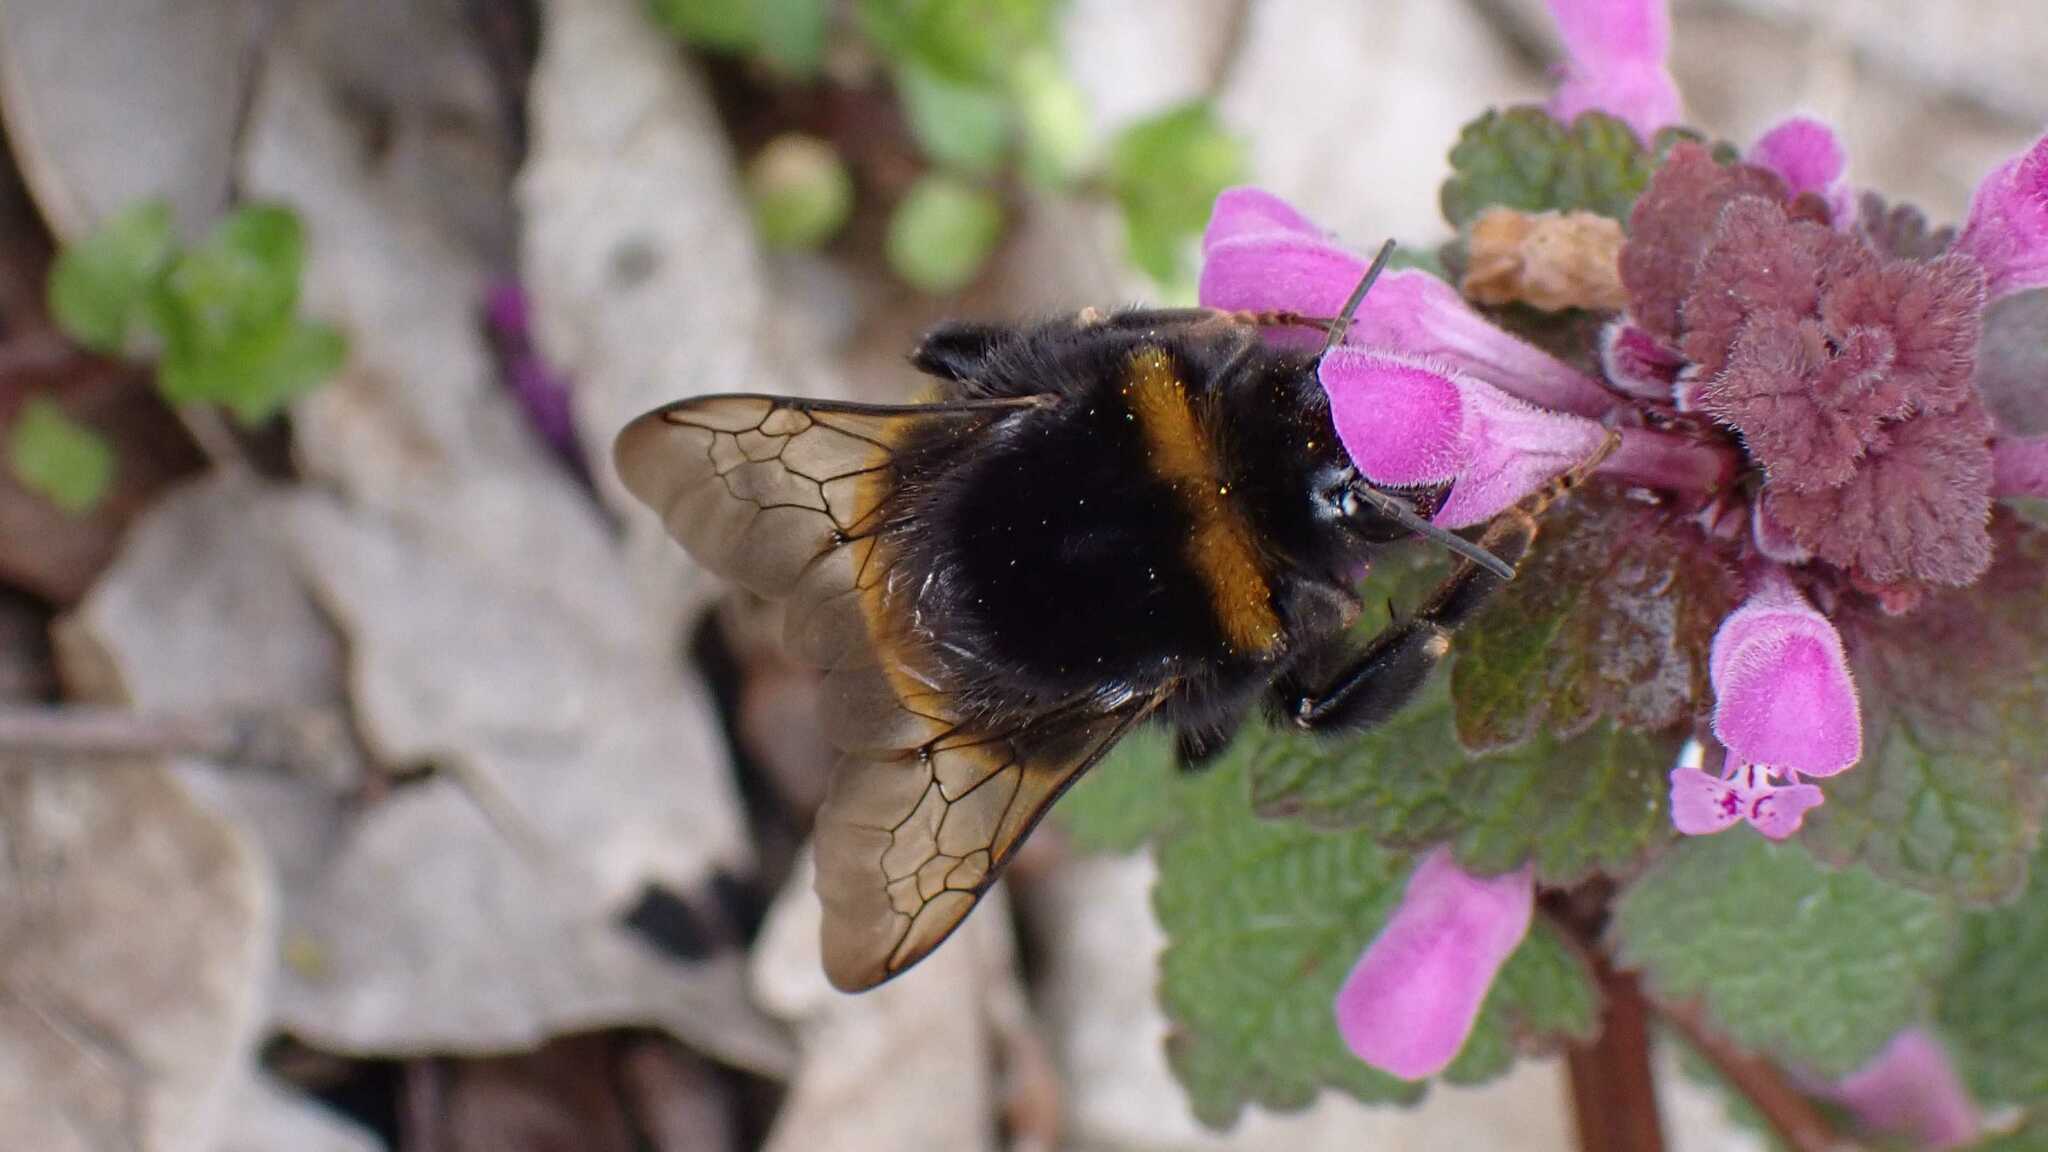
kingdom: Animalia
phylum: Arthropoda
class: Insecta
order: Hymenoptera
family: Apidae
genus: Bombus
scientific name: Bombus
